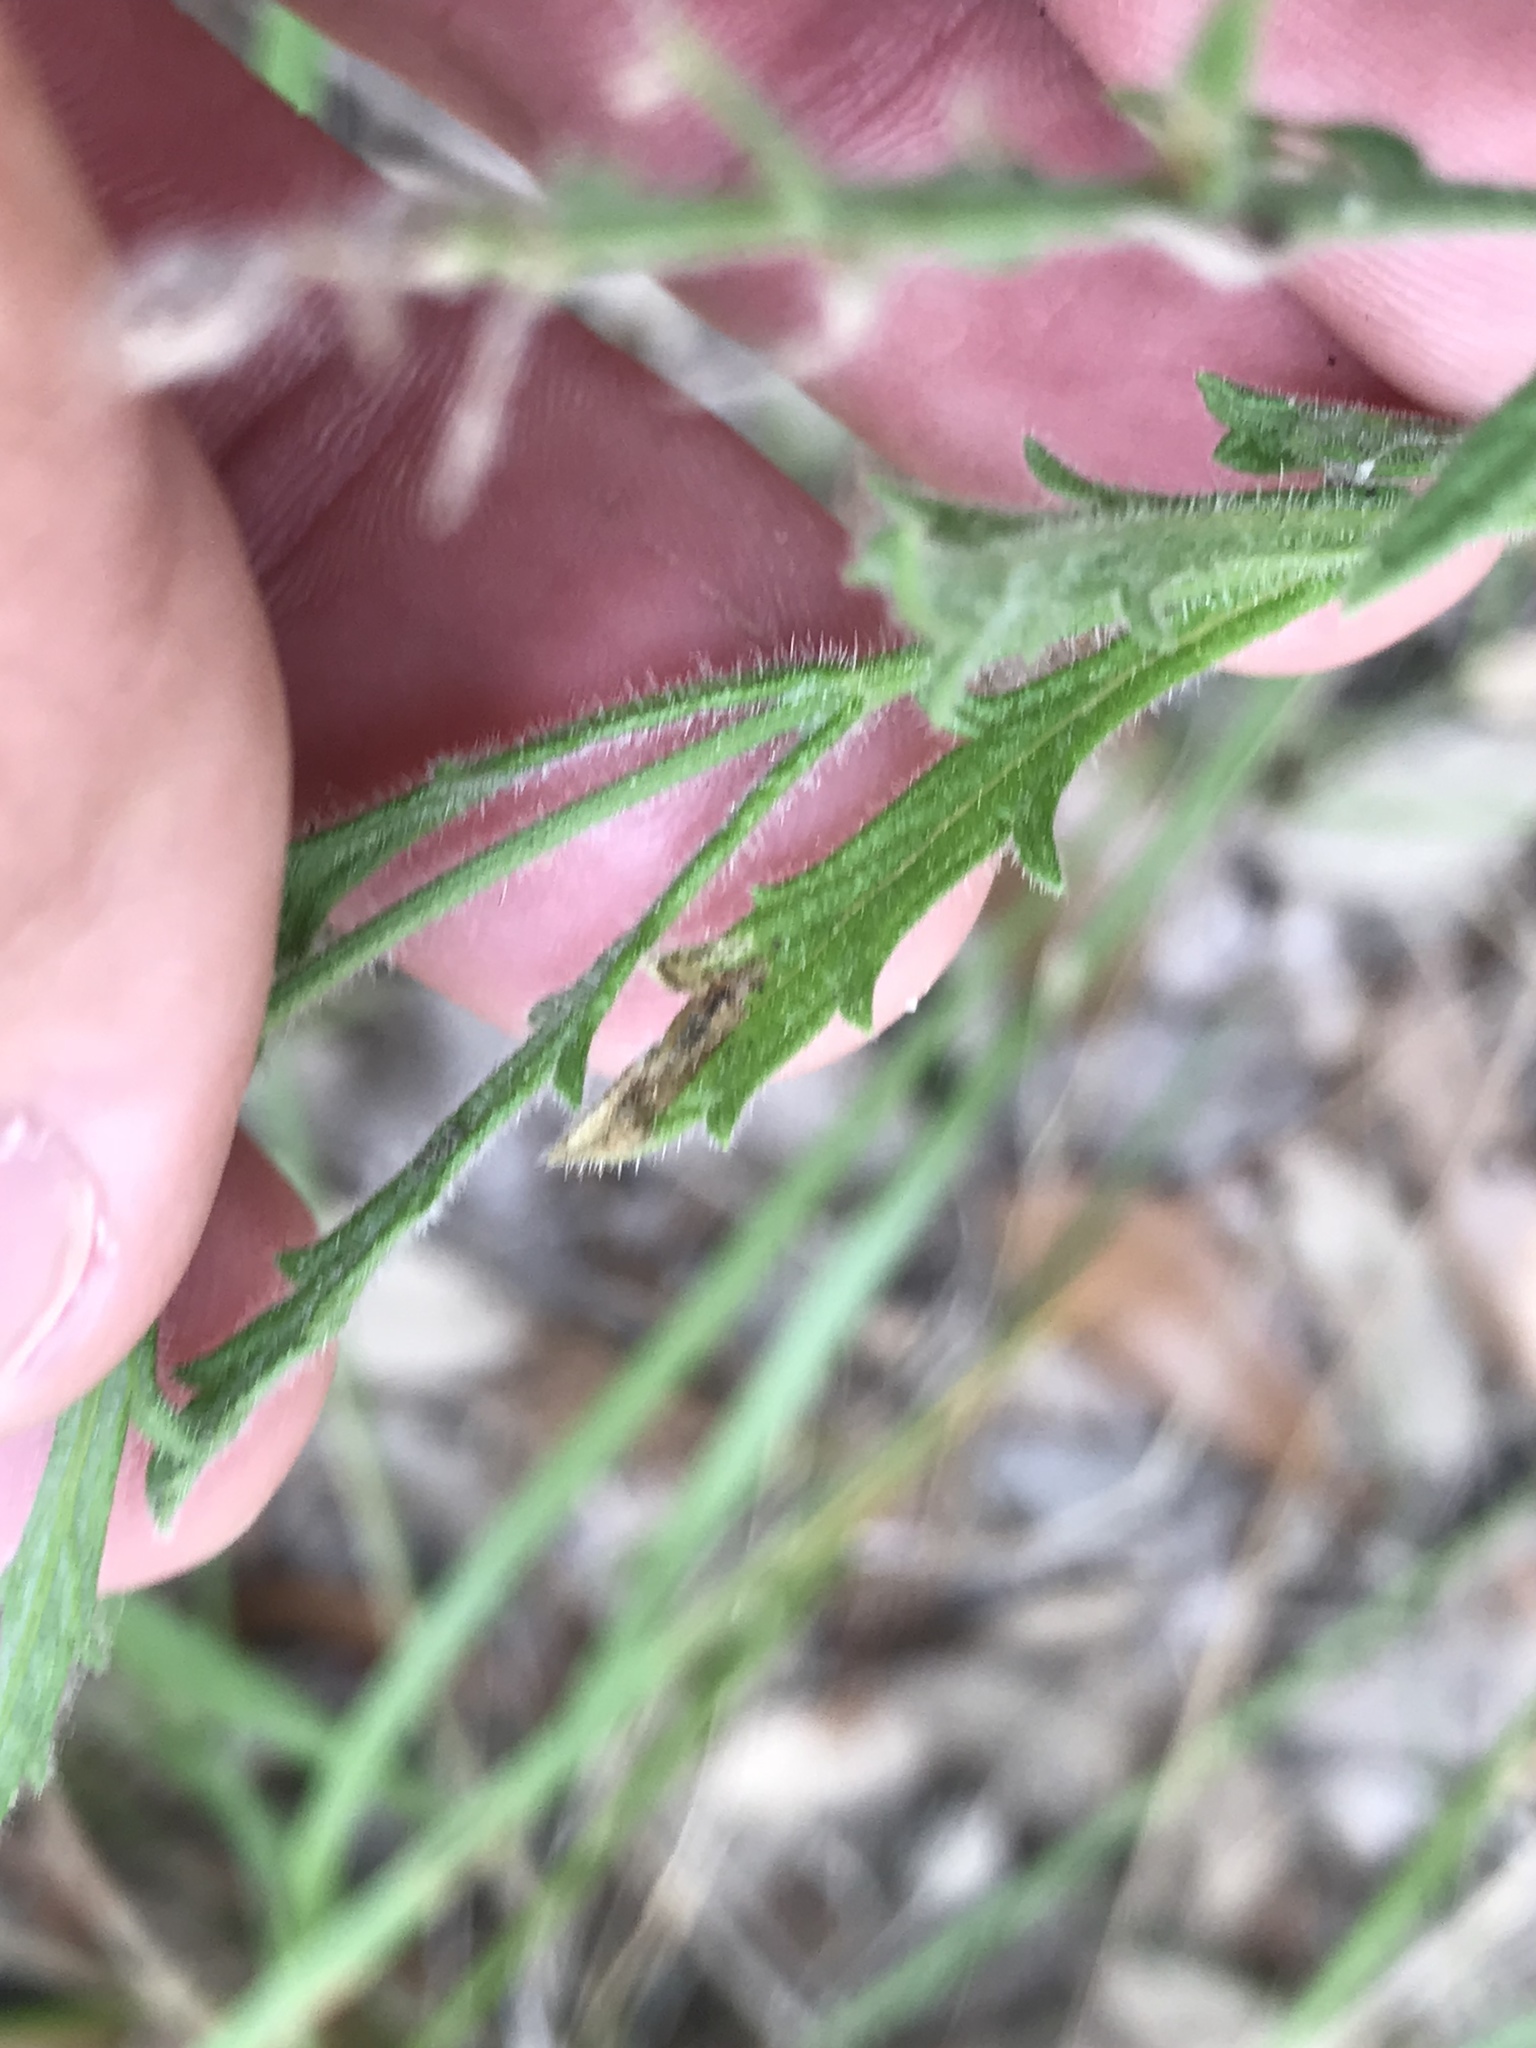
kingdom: Plantae
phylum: Tracheophyta
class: Magnoliopsida
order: Lamiales
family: Verbenaceae
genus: Verbena
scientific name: Verbena canescens
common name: Gray vervain
